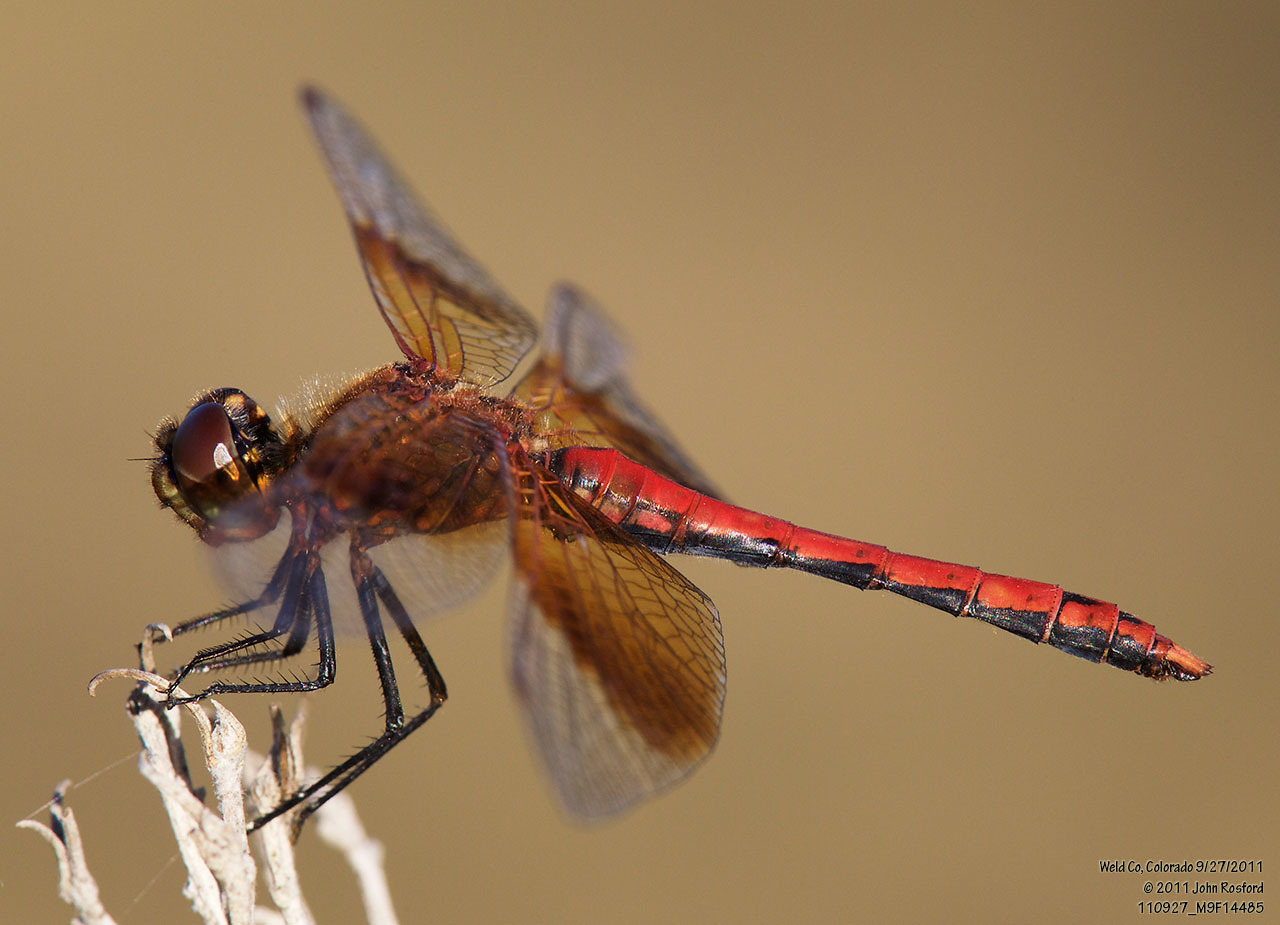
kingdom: Animalia
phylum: Arthropoda
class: Insecta
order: Odonata
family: Libellulidae
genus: Sympetrum
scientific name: Sympetrum semicinctum
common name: Band-winged meadowhawk
